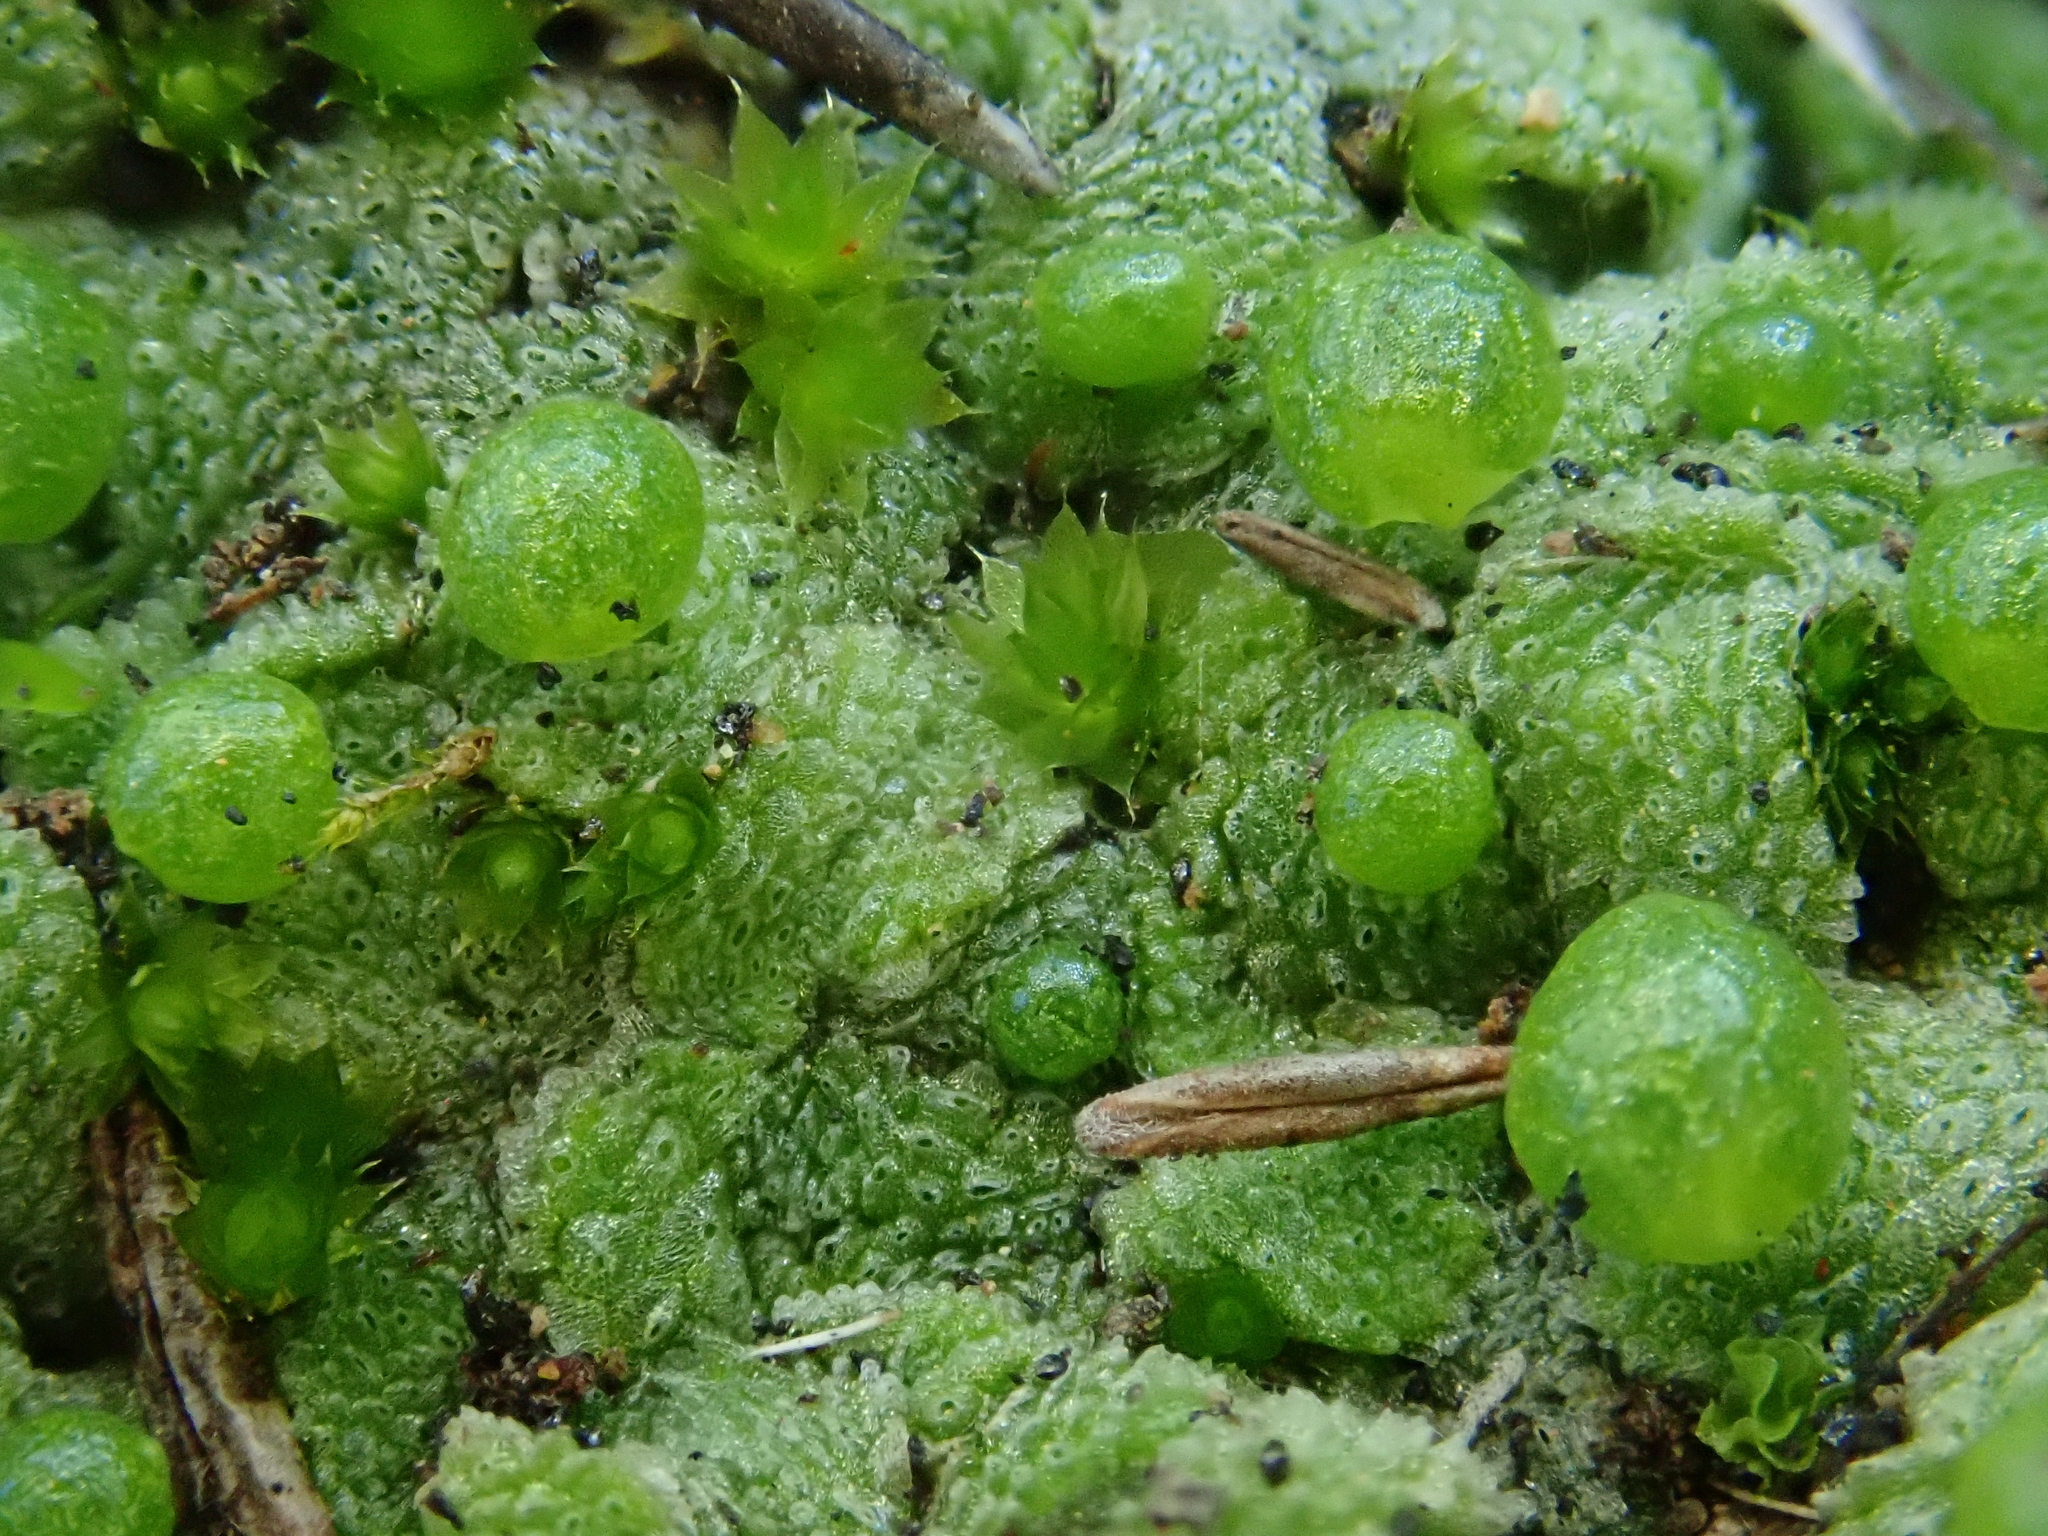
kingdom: Plantae
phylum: Marchantiophyta
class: Marchantiopsida
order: Marchantiales
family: Corsiniaceae
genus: Exormotheca
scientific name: Exormotheca pustulosa
